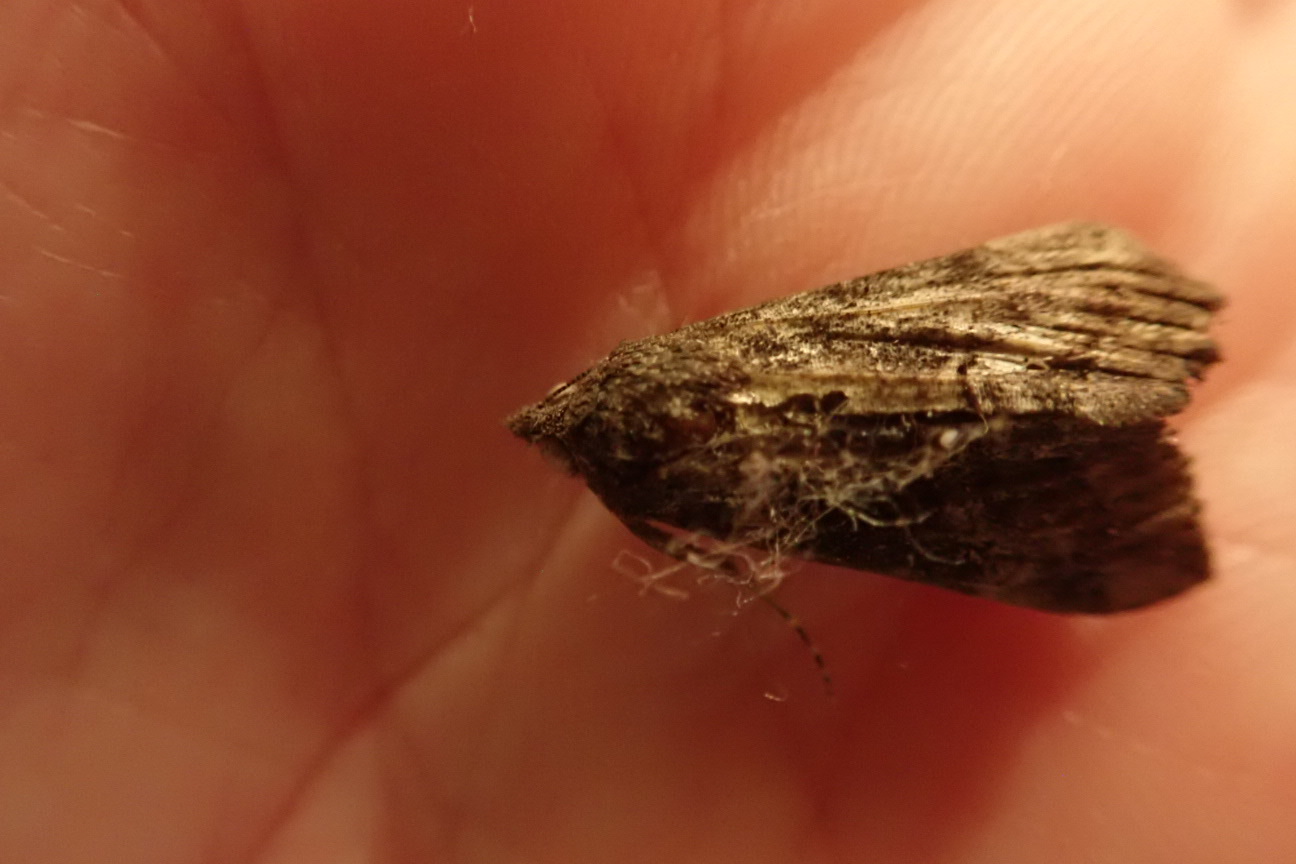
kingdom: Animalia
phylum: Arthropoda
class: Insecta
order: Lepidoptera
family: Erebidae
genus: Hypena
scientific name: Hypena scabra
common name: Green cloverworm
